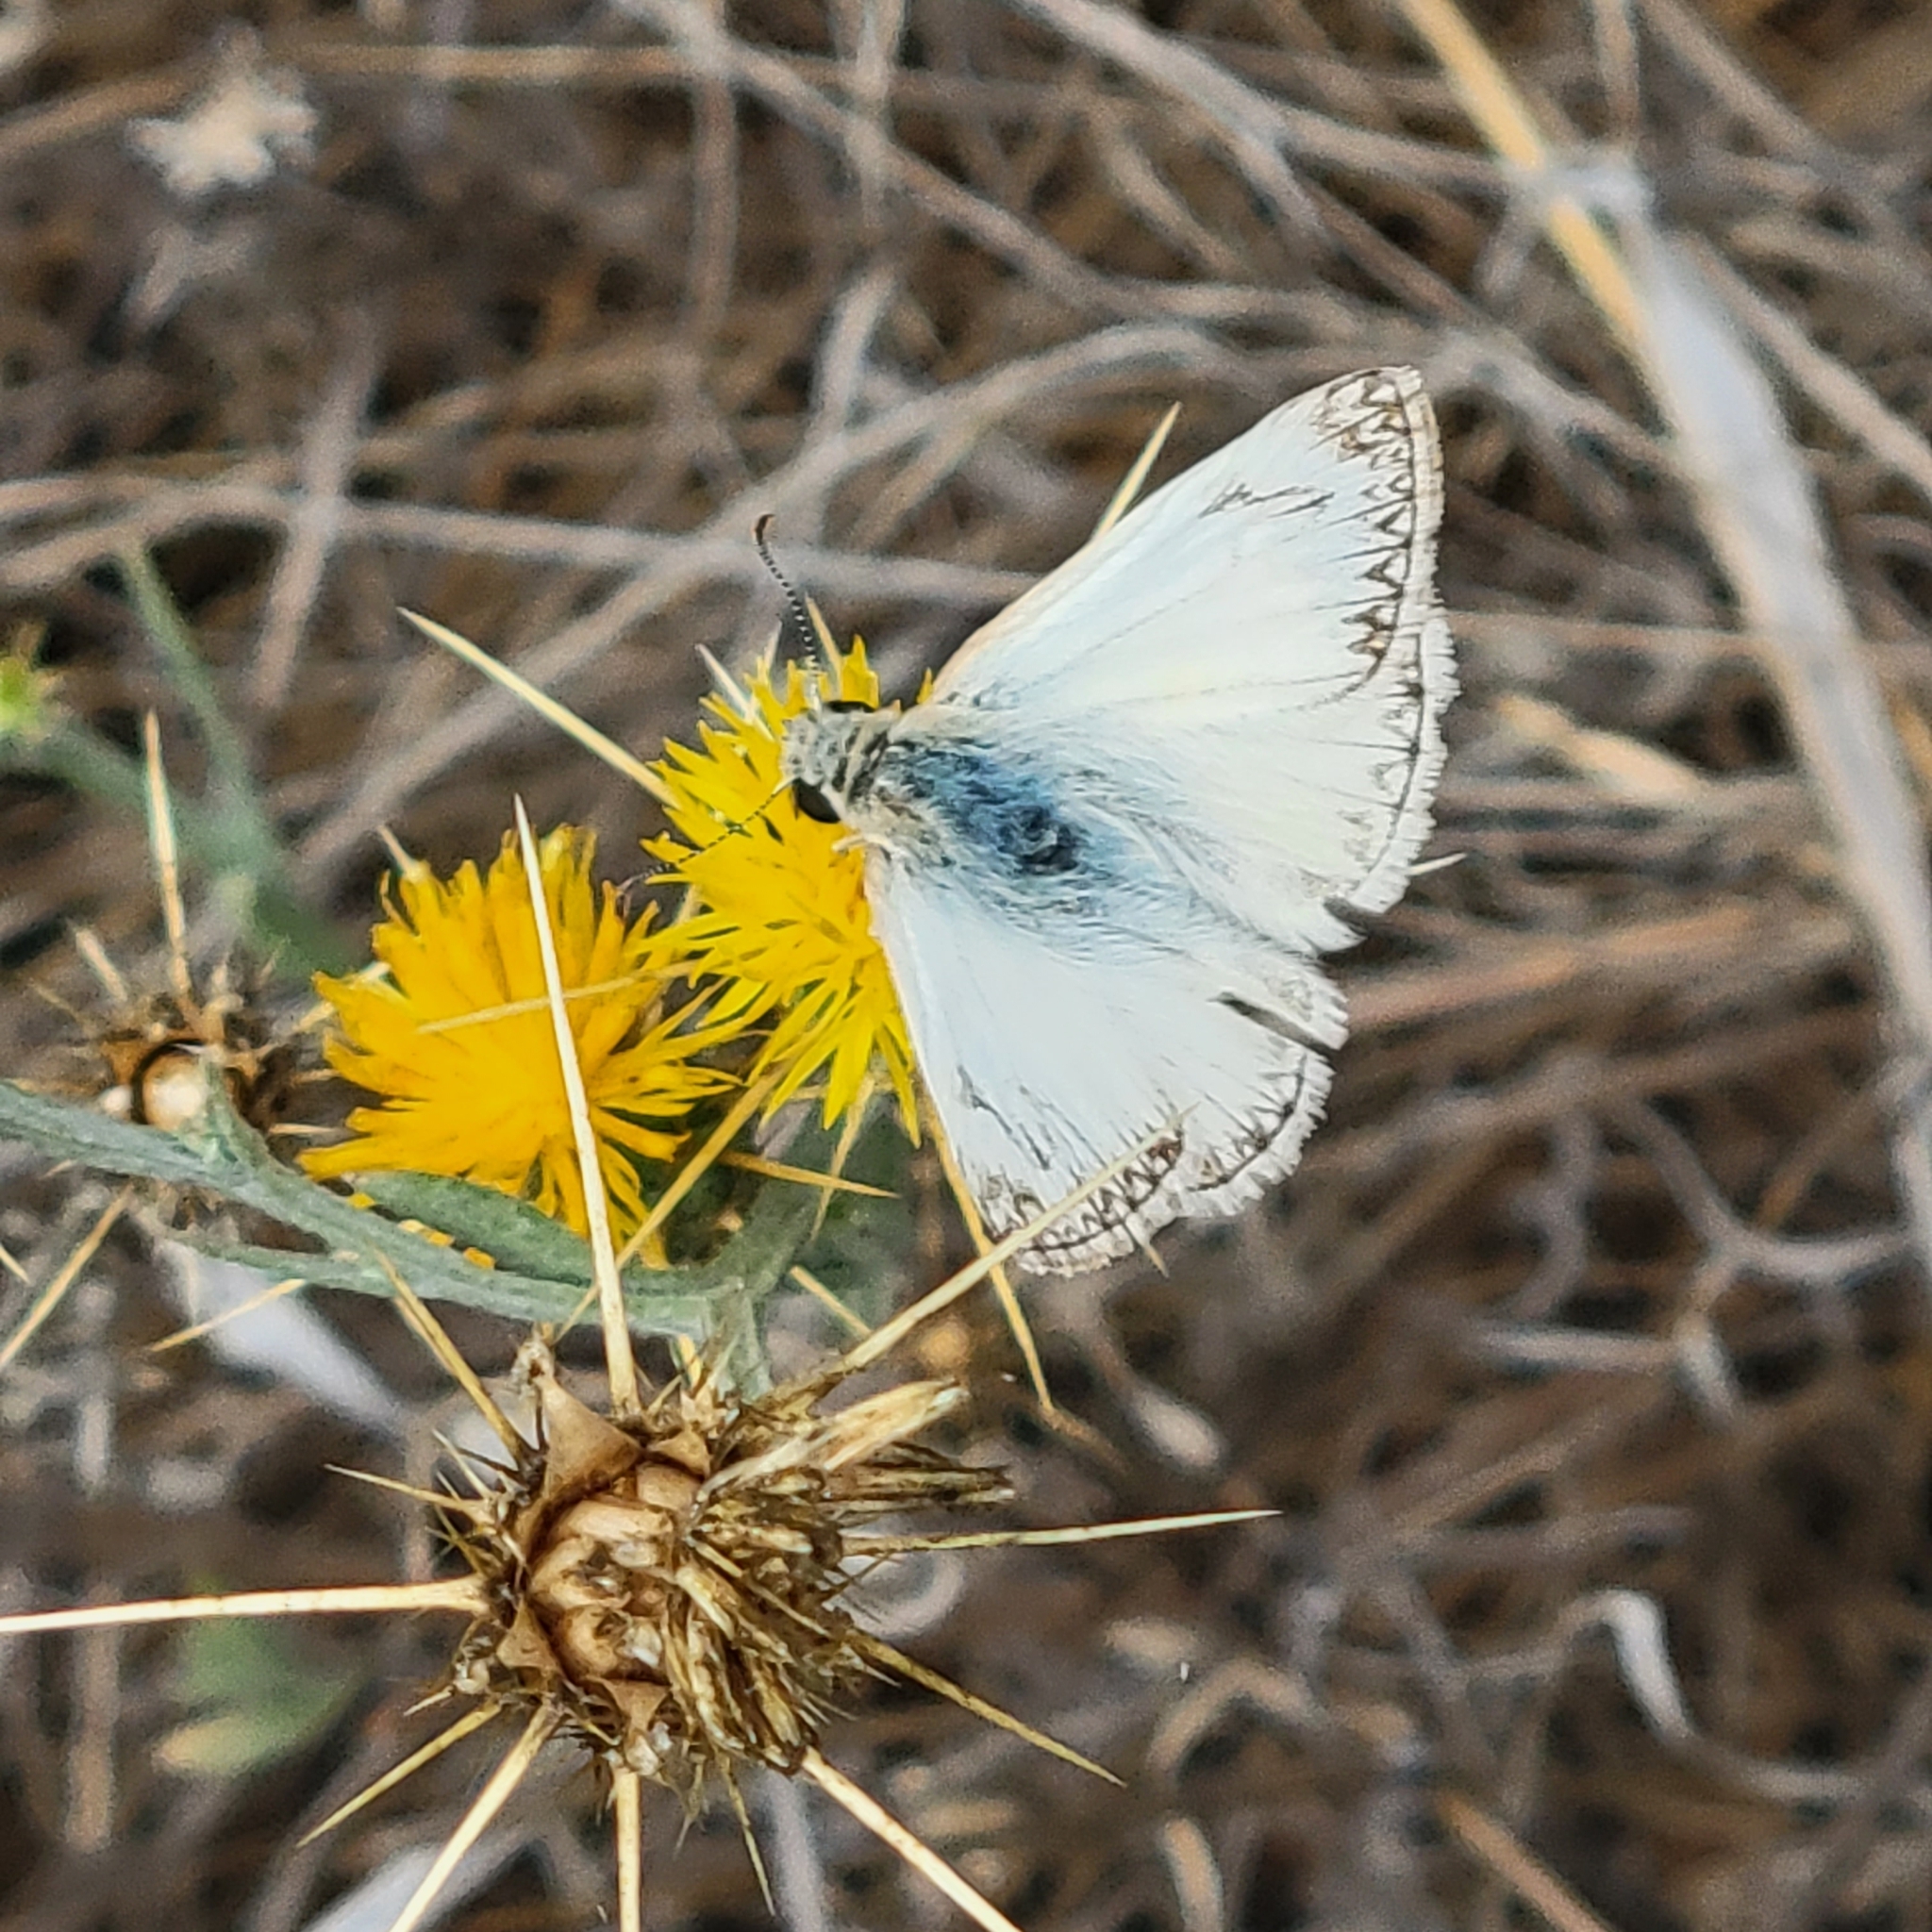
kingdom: Animalia
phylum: Arthropoda
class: Insecta
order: Lepidoptera
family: Hesperiidae
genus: Heliopetes
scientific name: Heliopetes ericetorum
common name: Northern white-skipper
